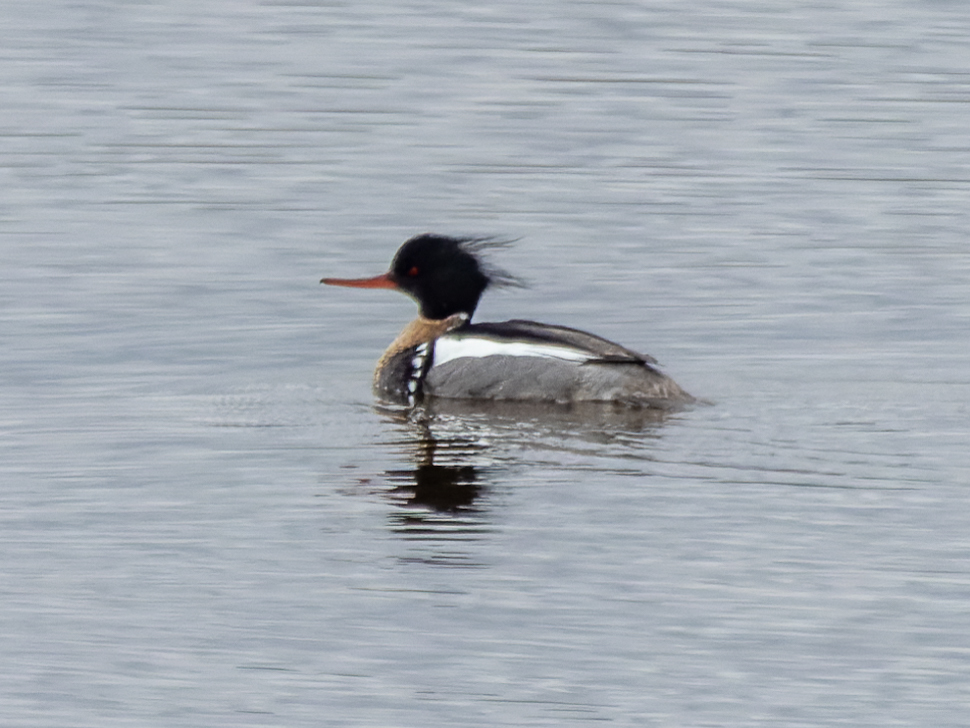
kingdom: Animalia
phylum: Chordata
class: Aves
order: Anseriformes
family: Anatidae
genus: Mergus
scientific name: Mergus serrator
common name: Red-breasted merganser
